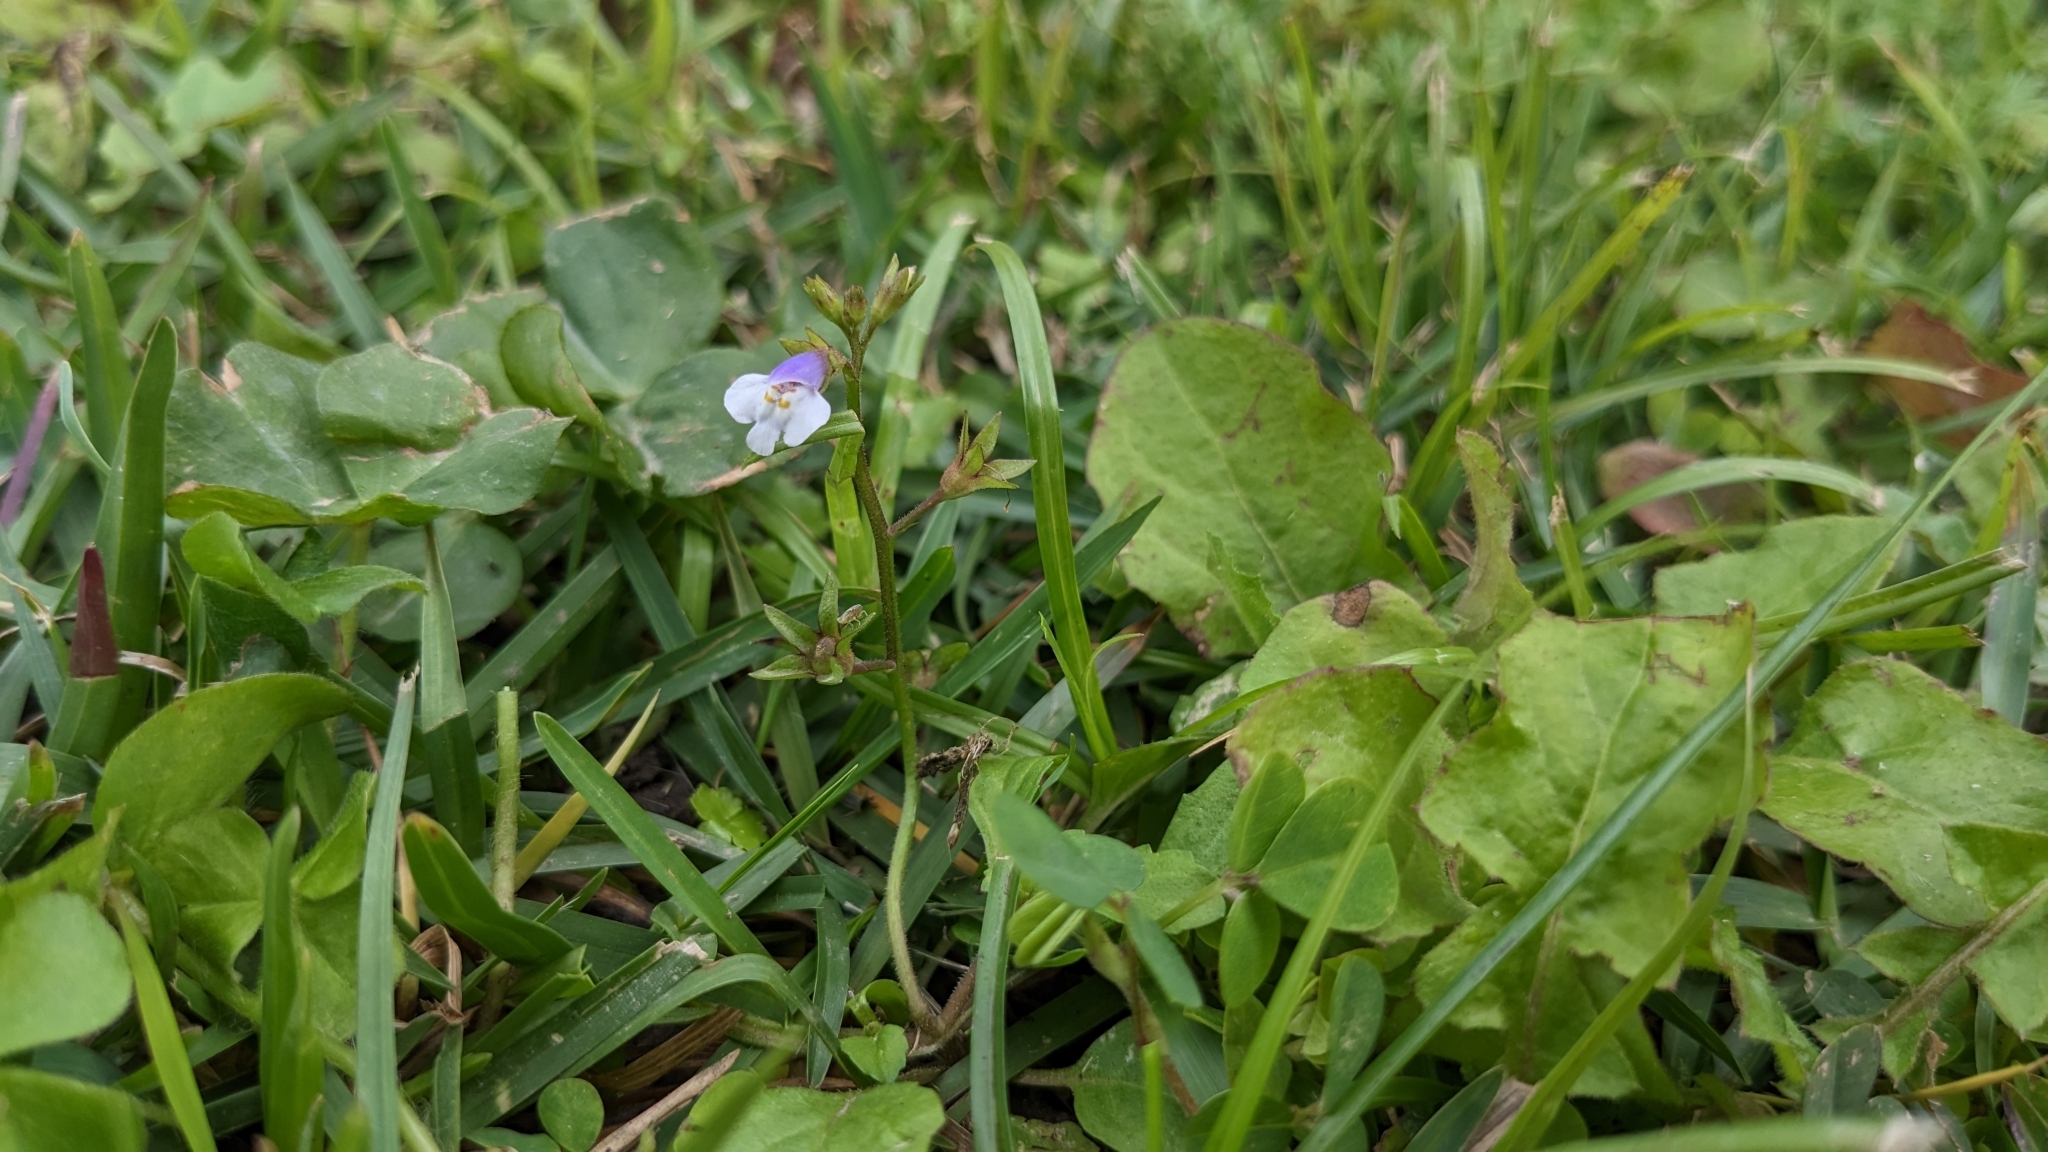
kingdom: Plantae
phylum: Tracheophyta
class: Magnoliopsida
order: Lamiales
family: Mazaceae
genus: Mazus
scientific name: Mazus pumilus
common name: Japanese mazus
